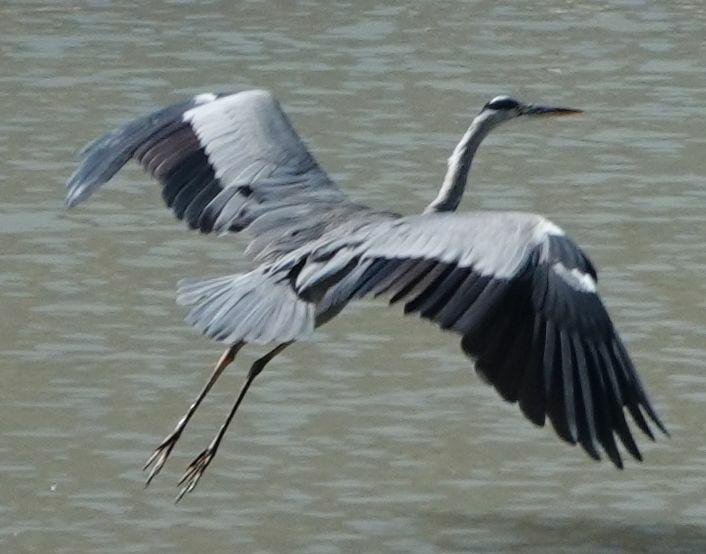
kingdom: Animalia
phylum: Chordata
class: Aves
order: Pelecaniformes
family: Ardeidae
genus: Ardea
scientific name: Ardea cinerea
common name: Grey heron
